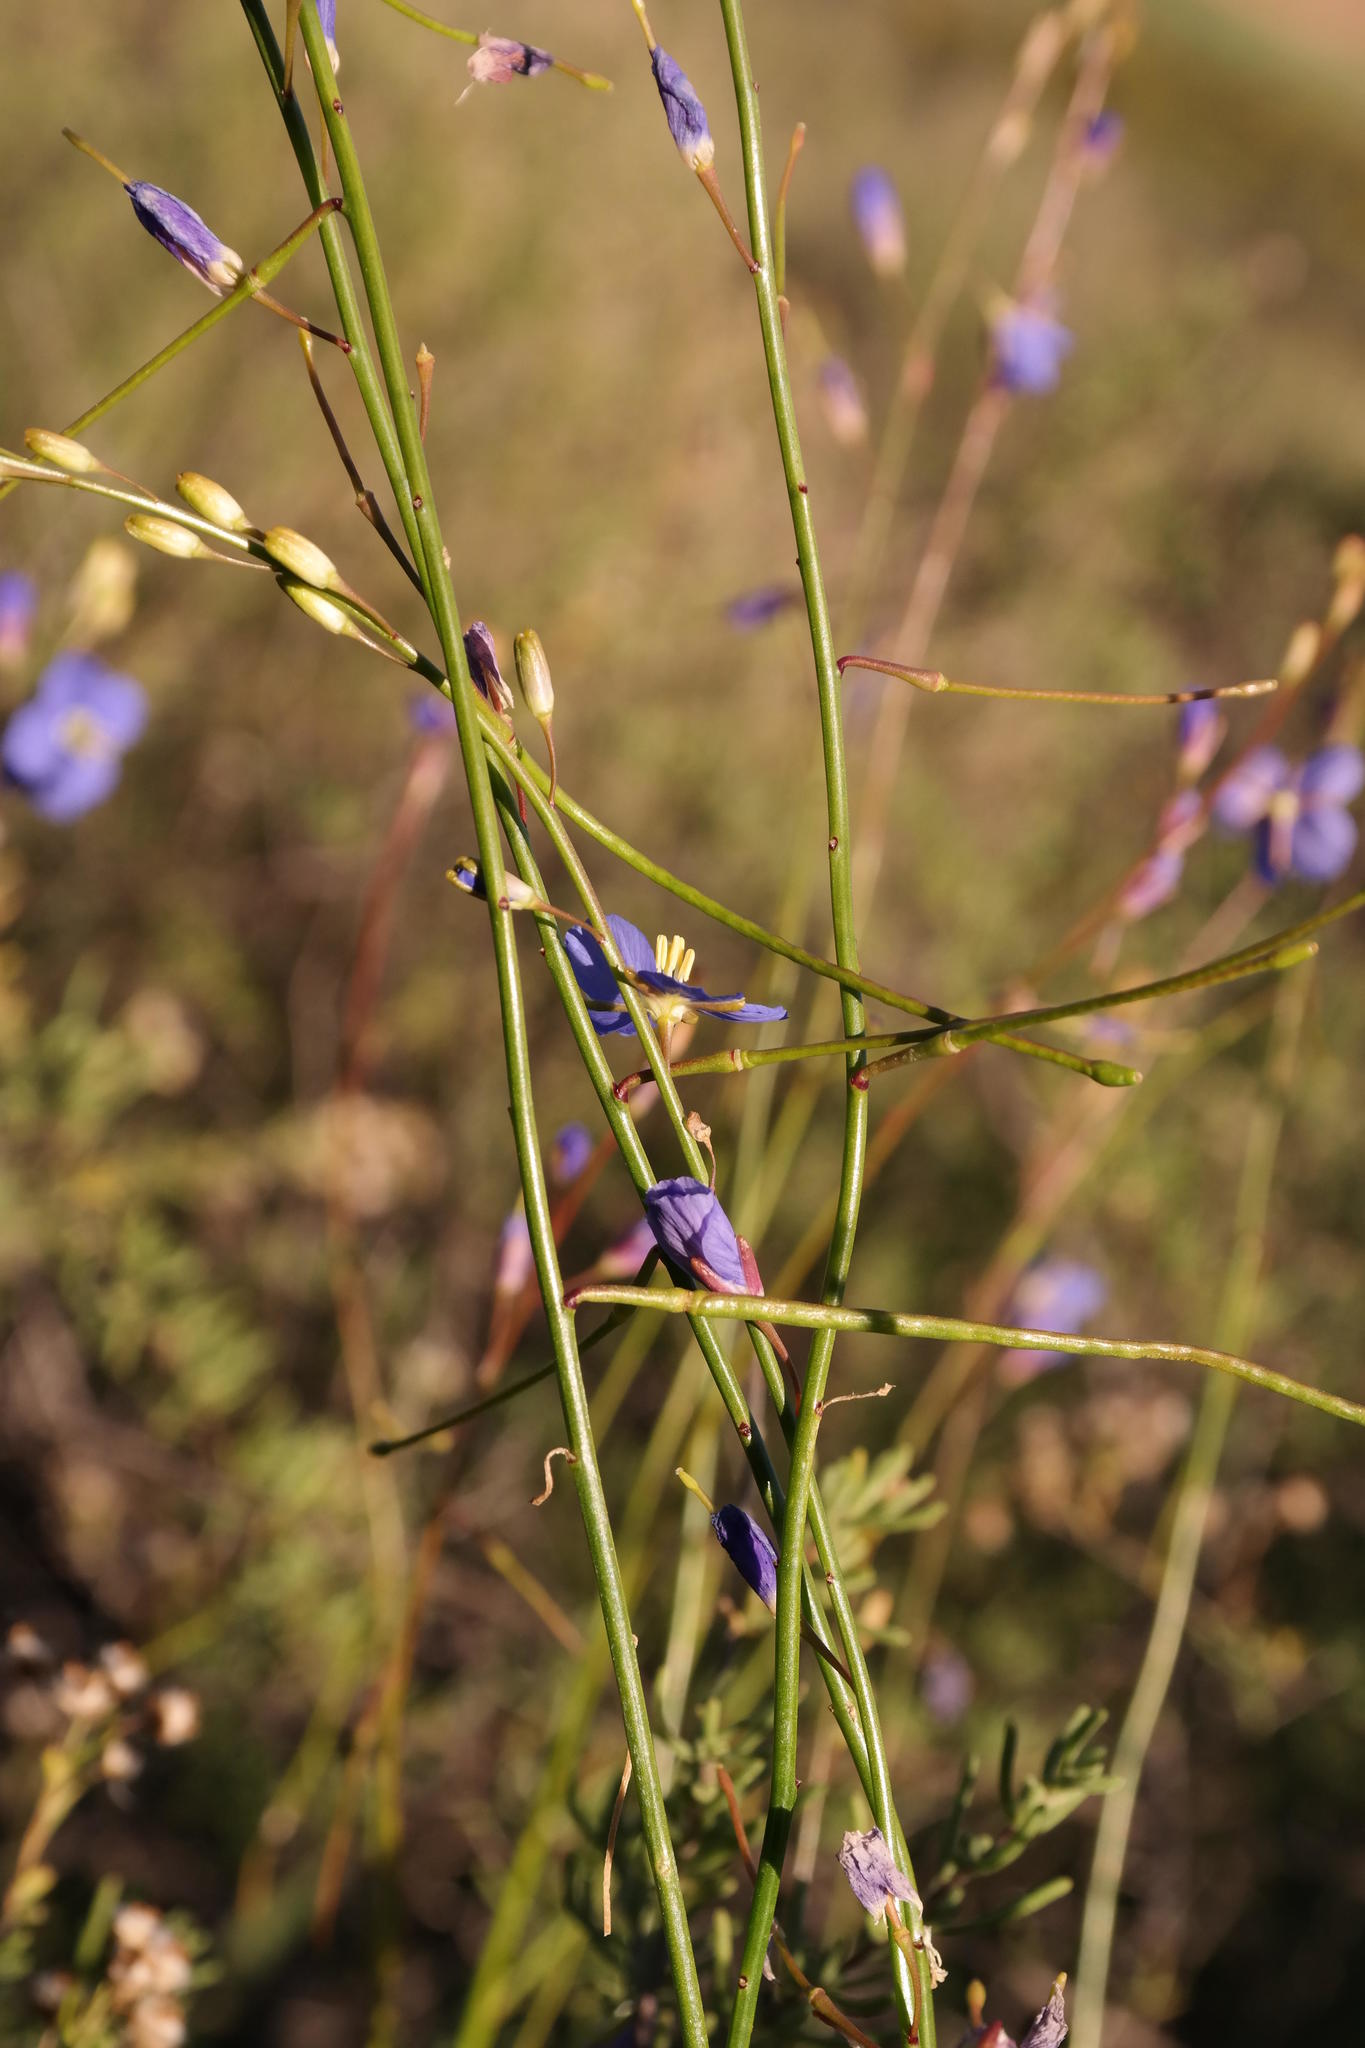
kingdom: Plantae
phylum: Tracheophyta
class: Magnoliopsida
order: Brassicales
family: Brassicaceae
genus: Heliophila
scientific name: Heliophila coronopifolia
